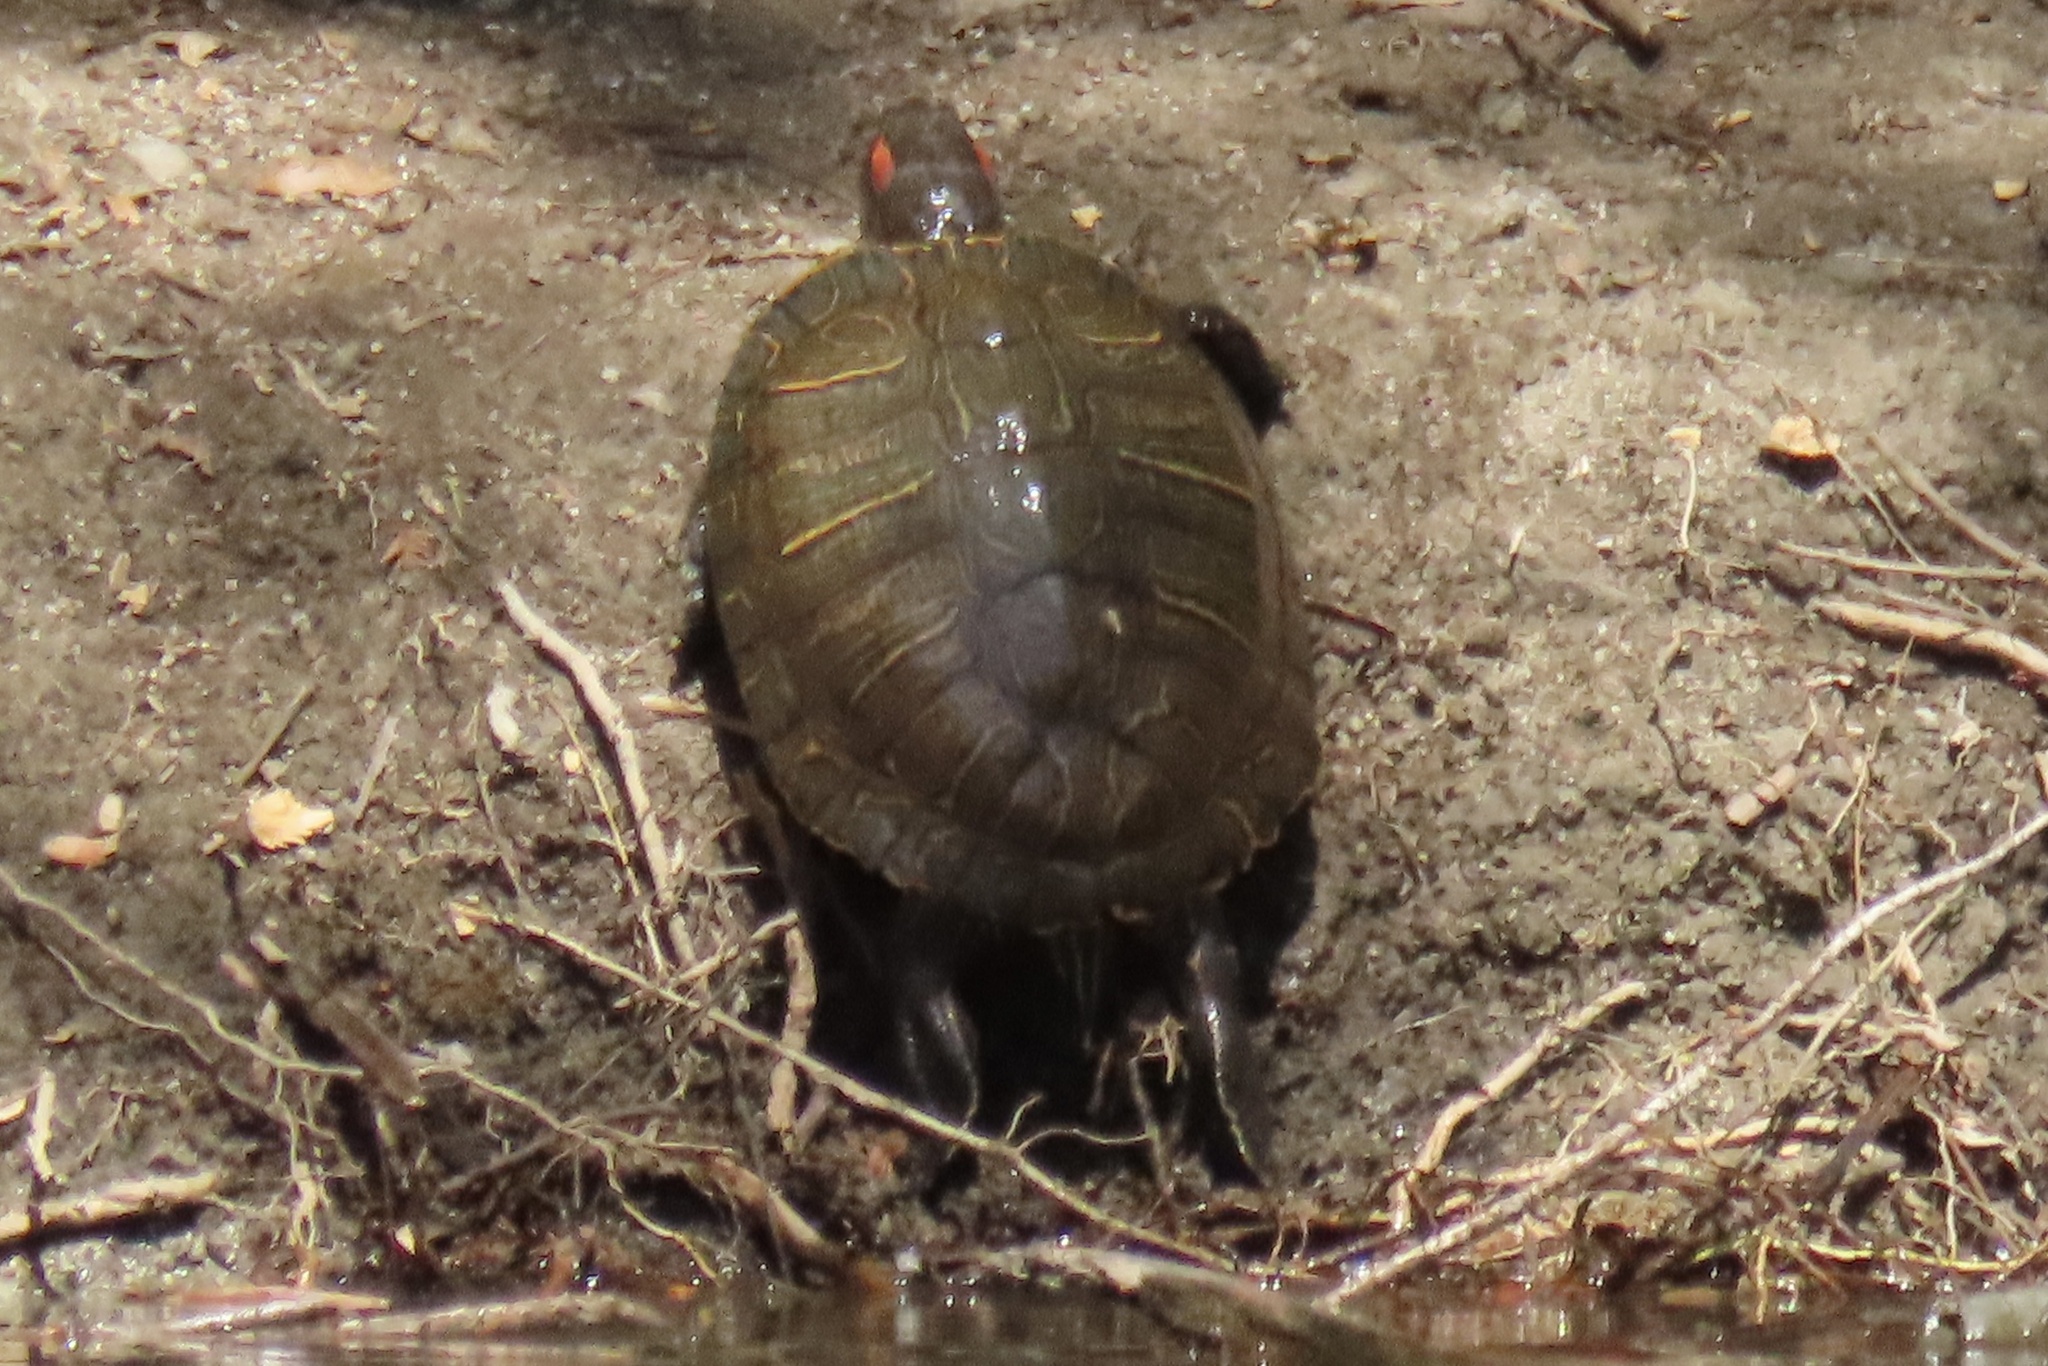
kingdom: Animalia
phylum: Chordata
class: Testudines
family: Emydidae
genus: Trachemys
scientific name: Trachemys scripta
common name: Slider
